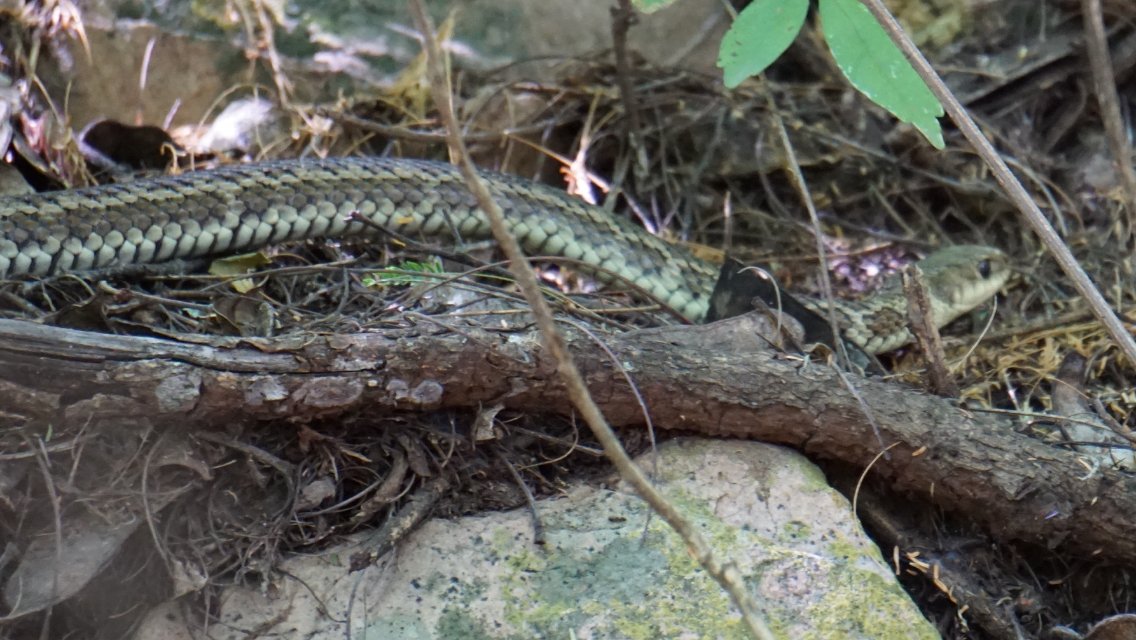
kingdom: Animalia
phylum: Chordata
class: Squamata
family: Colubridae
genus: Philodryas
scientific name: Philodryas varia
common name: Jan's green racer
